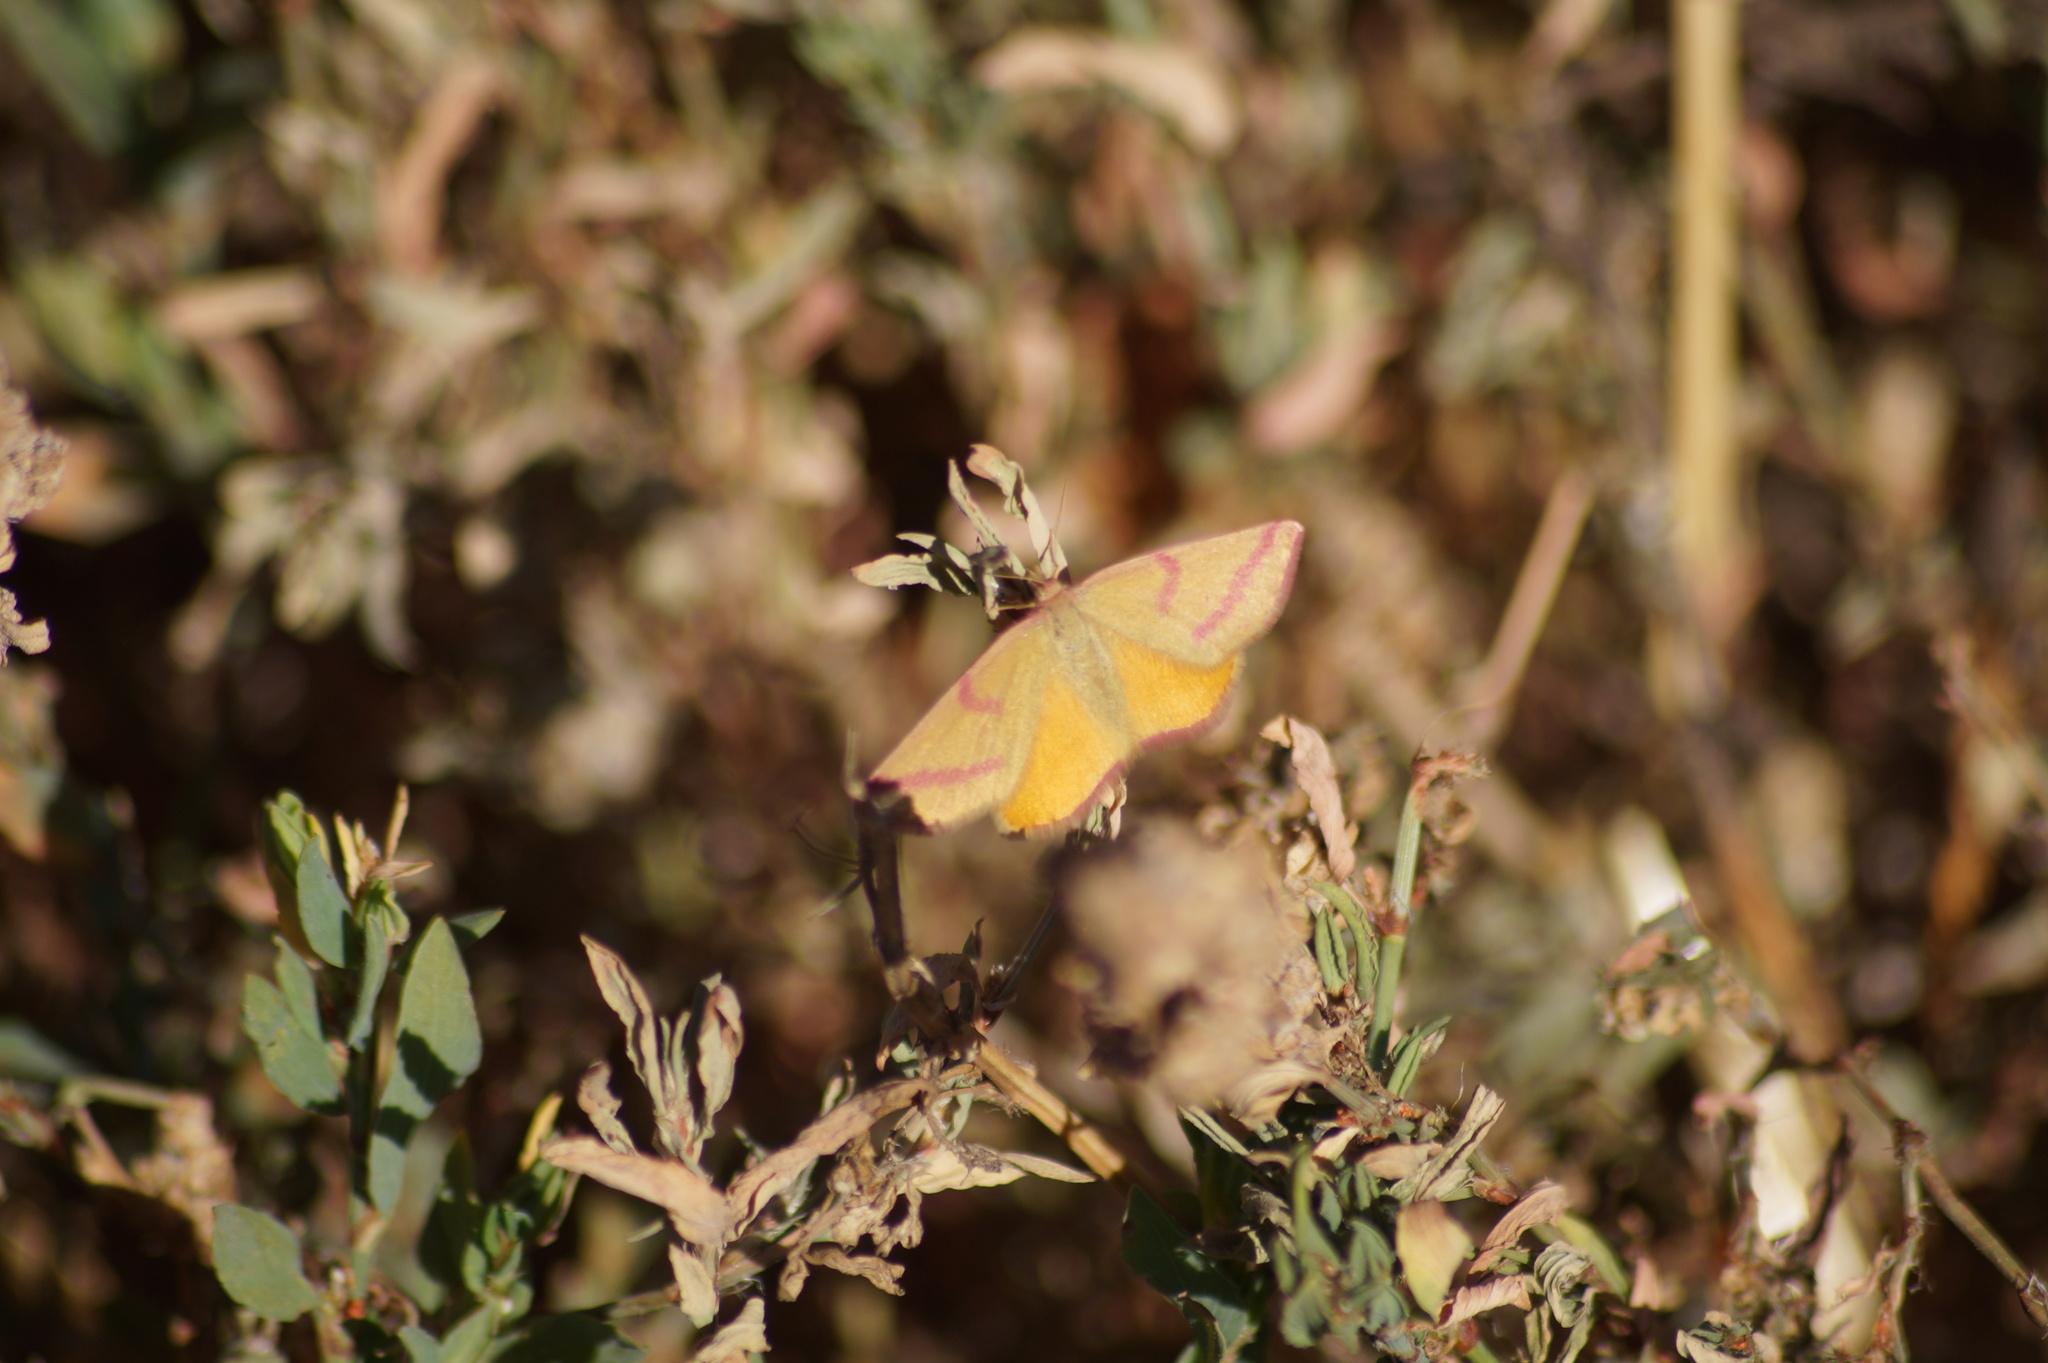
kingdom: Animalia
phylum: Arthropoda
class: Insecta
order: Lepidoptera
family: Geometridae
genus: Lythria
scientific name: Lythria purpuraria
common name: Purple-barred yellow
